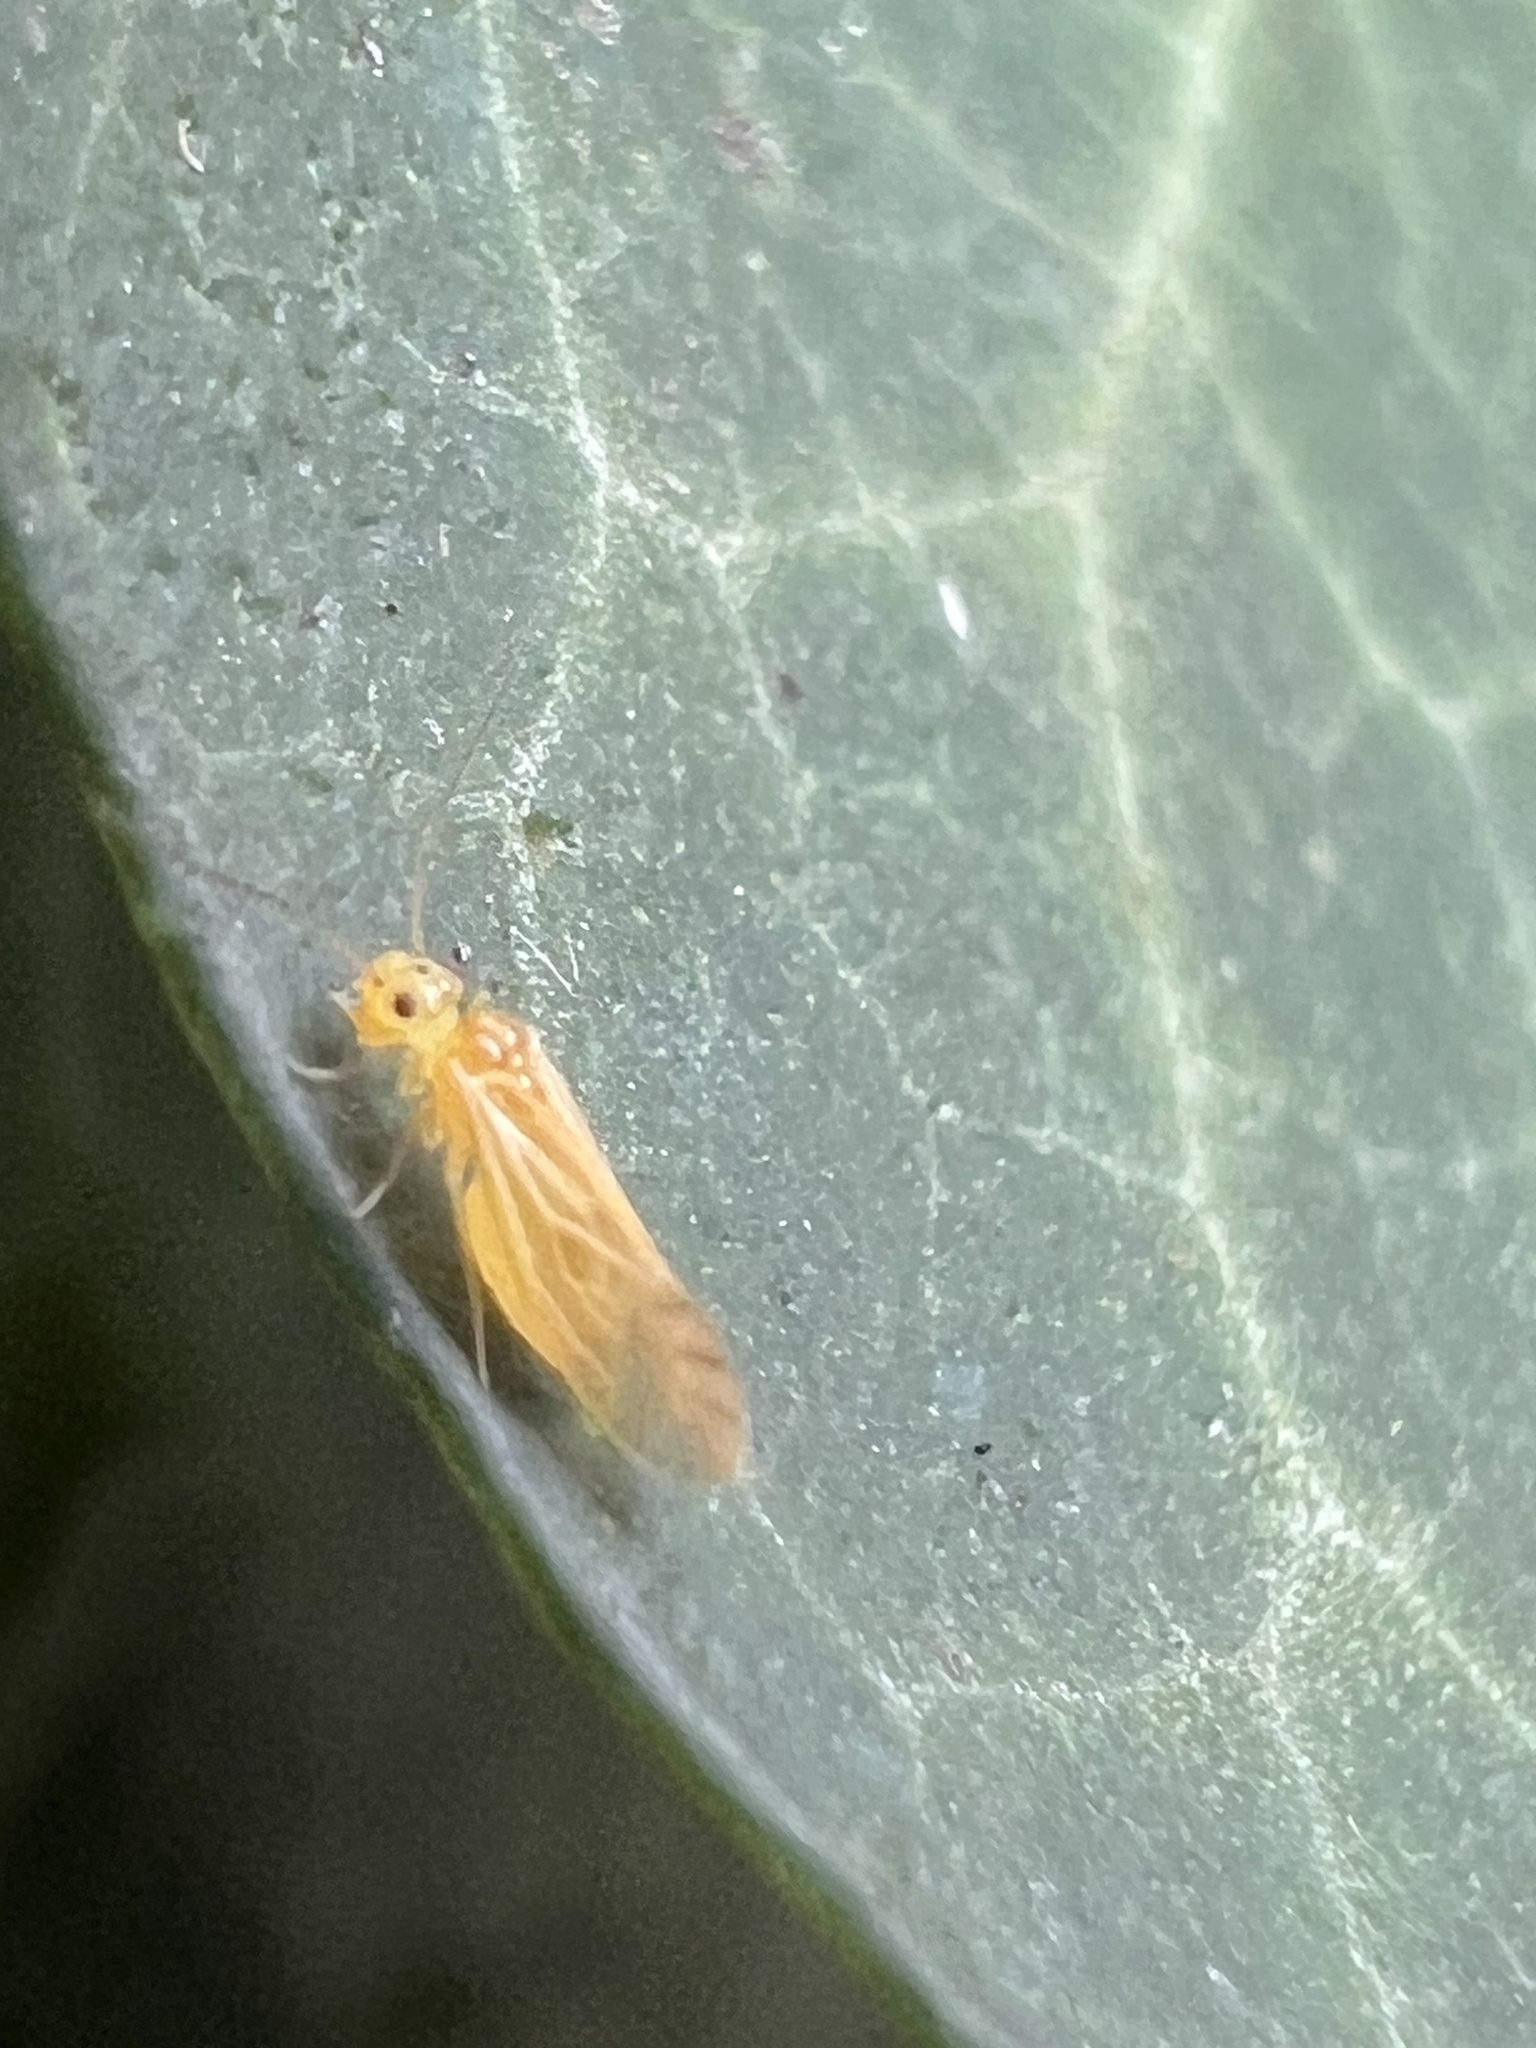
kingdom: Animalia
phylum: Arthropoda
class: Insecta
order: Psocodea
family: Caeciliusidae
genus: Valenzuela
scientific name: Valenzuela flavidus
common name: Yellow barklouse
